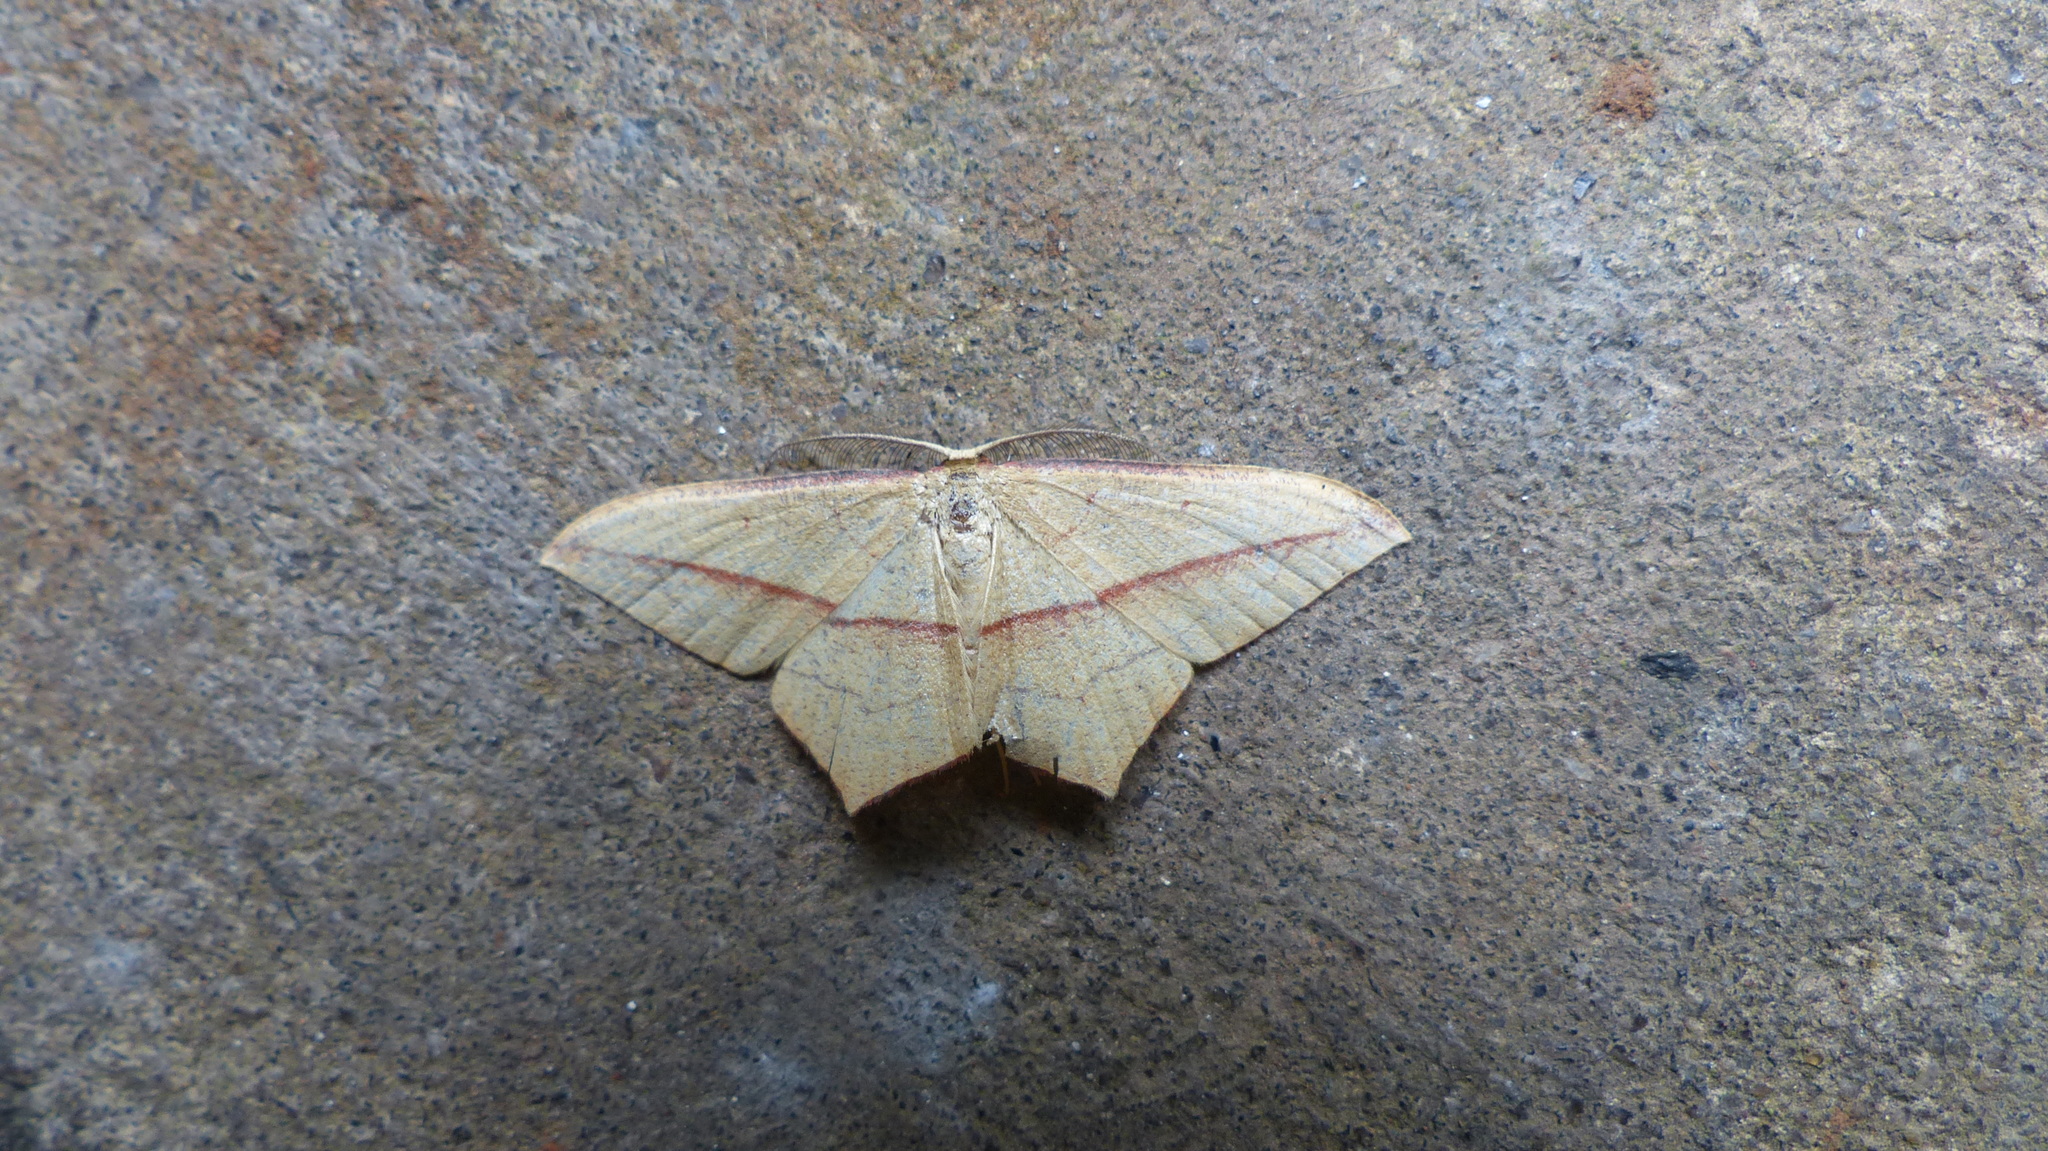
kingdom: Animalia
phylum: Arthropoda
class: Insecta
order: Lepidoptera
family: Geometridae
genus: Timandra
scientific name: Timandra responsaria
